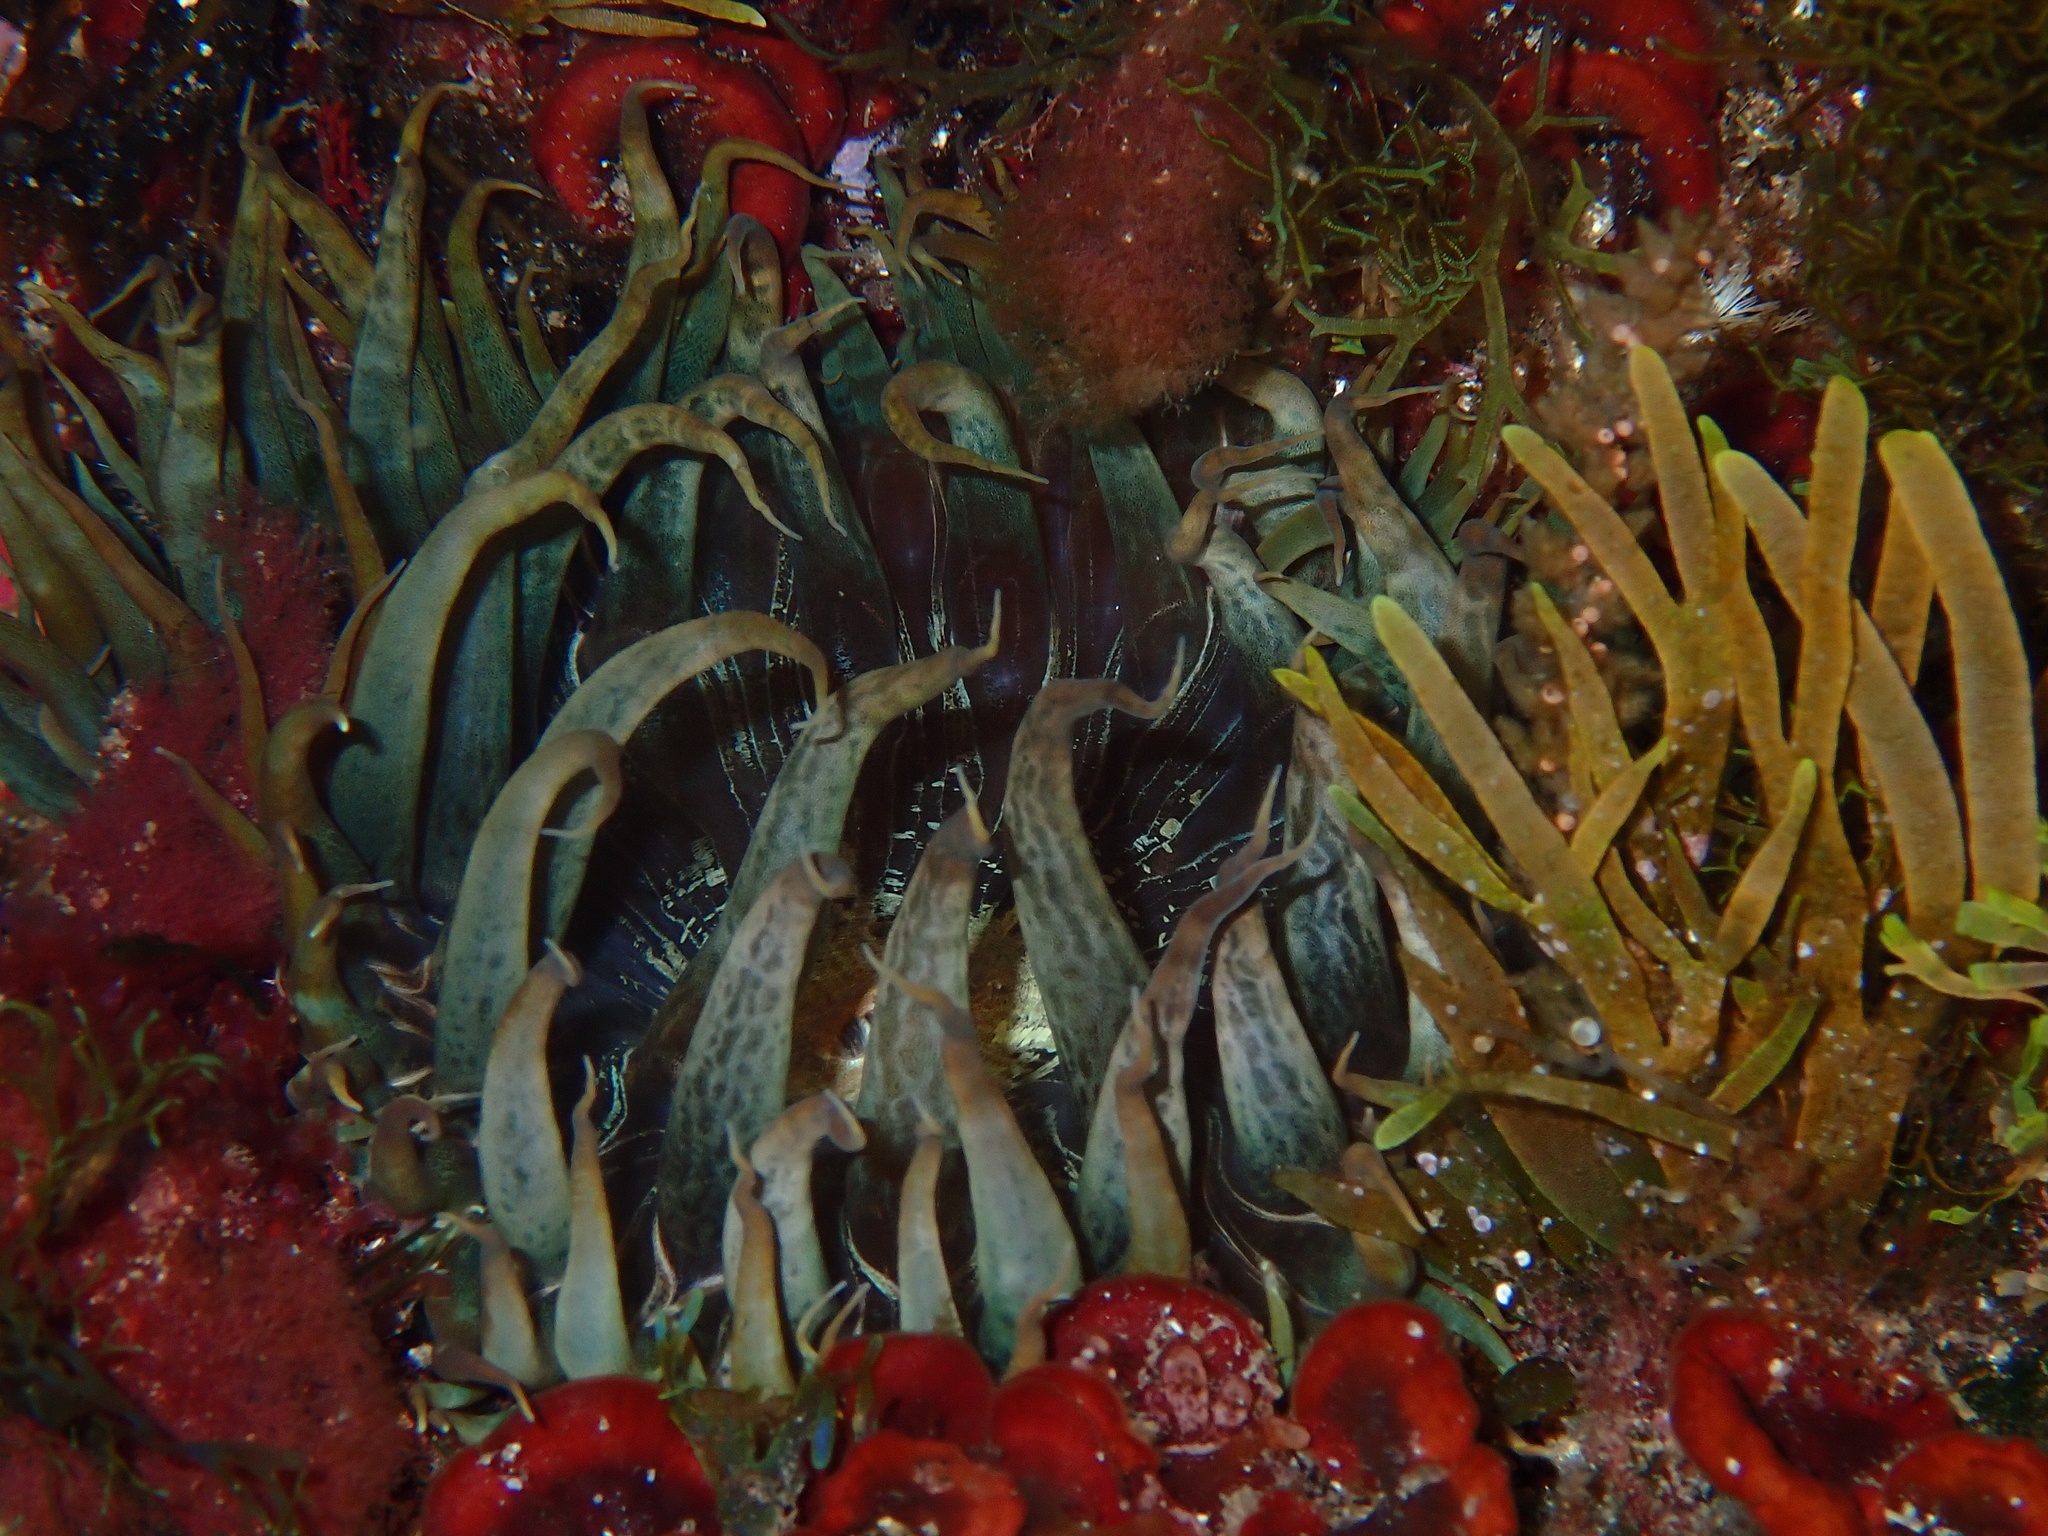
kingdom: Animalia
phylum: Cnidaria
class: Anthozoa
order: Actiniaria
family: Aiptasiidae
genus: Aiptasia
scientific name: Aiptasia mutabilis
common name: Trumpet anemone
